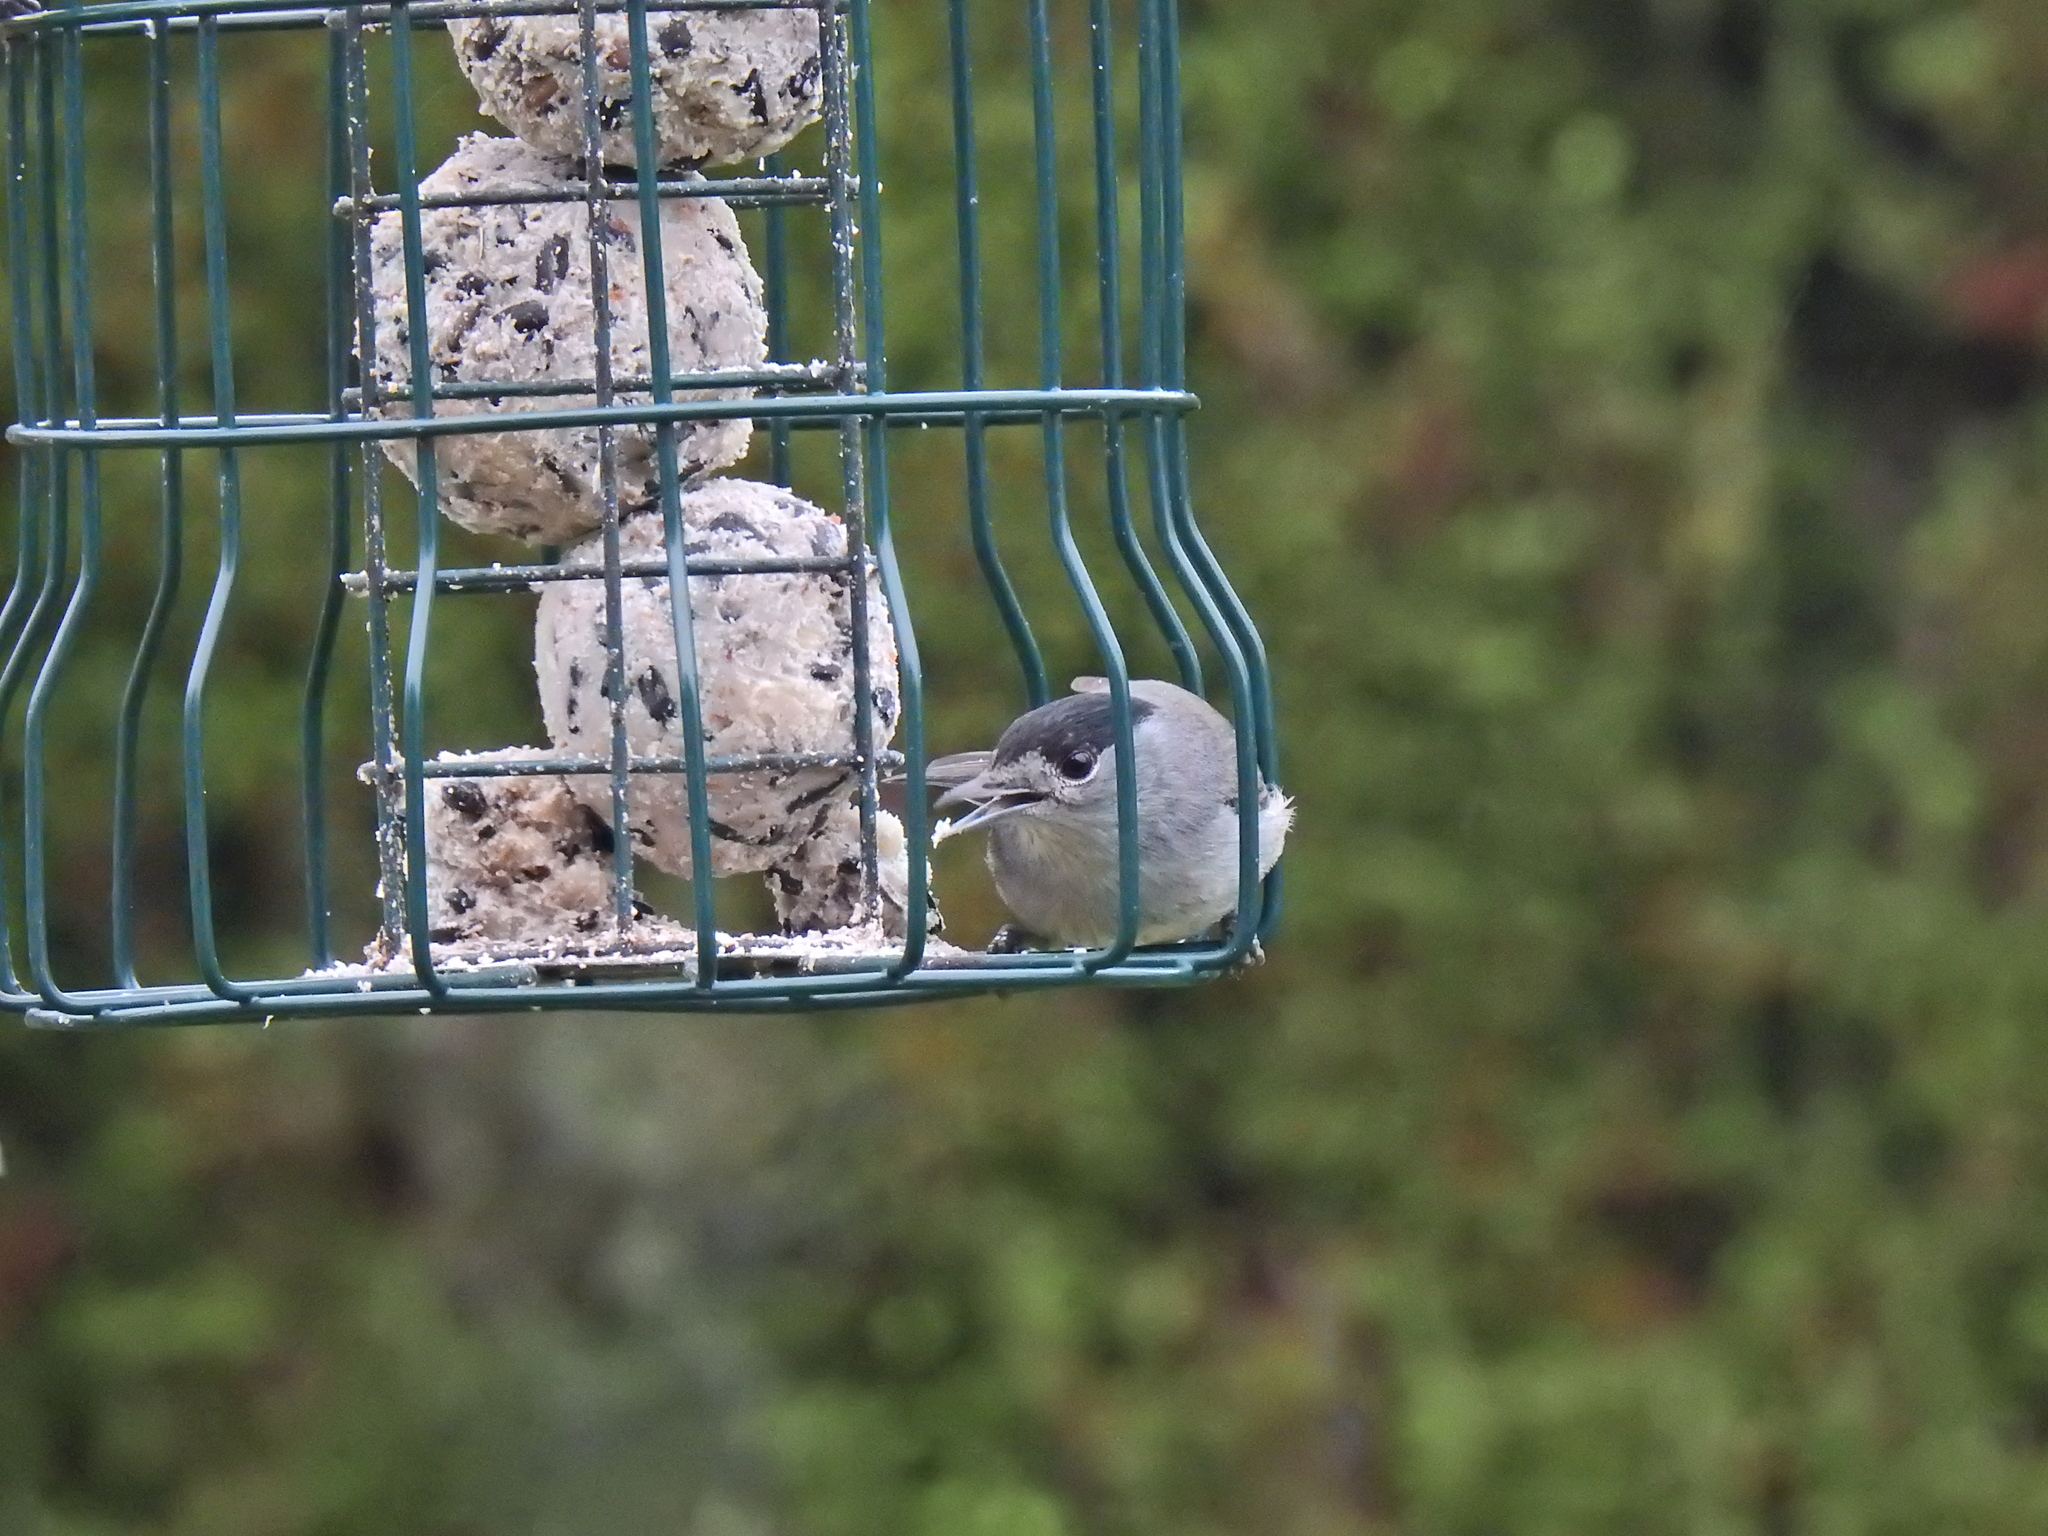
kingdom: Animalia
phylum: Chordata
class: Aves
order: Passeriformes
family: Sylviidae
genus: Sylvia
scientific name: Sylvia atricapilla
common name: Eurasian blackcap
